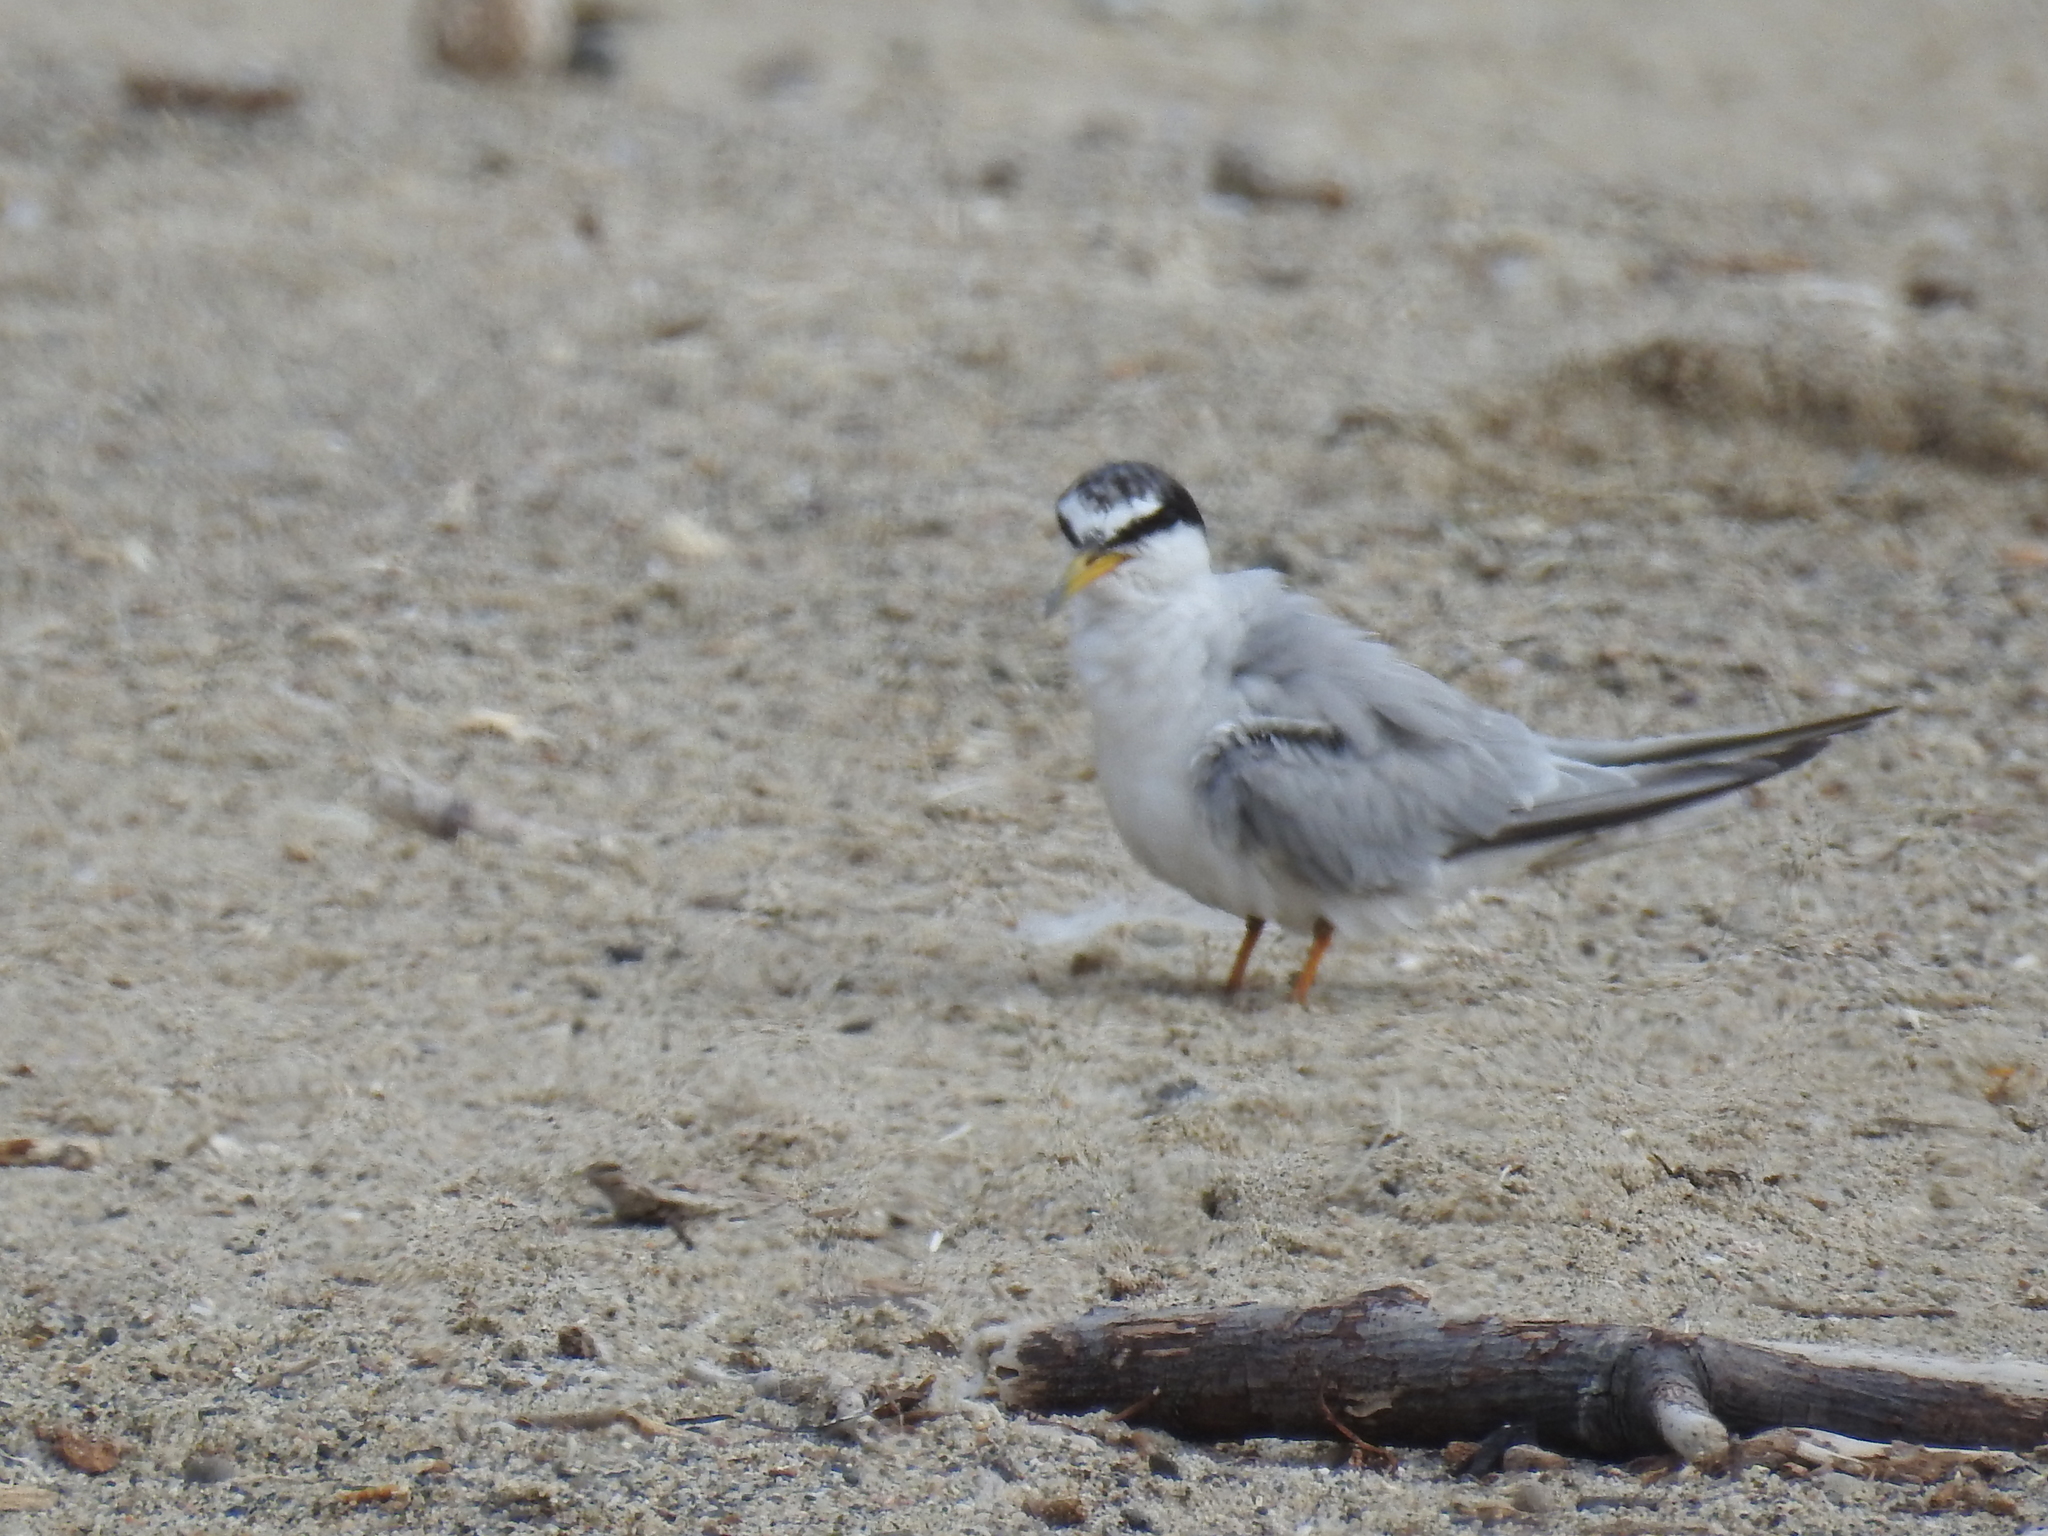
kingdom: Animalia
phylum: Chordata
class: Aves
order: Charadriiformes
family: Laridae
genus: Sternula
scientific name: Sternula antillarum
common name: Least tern
